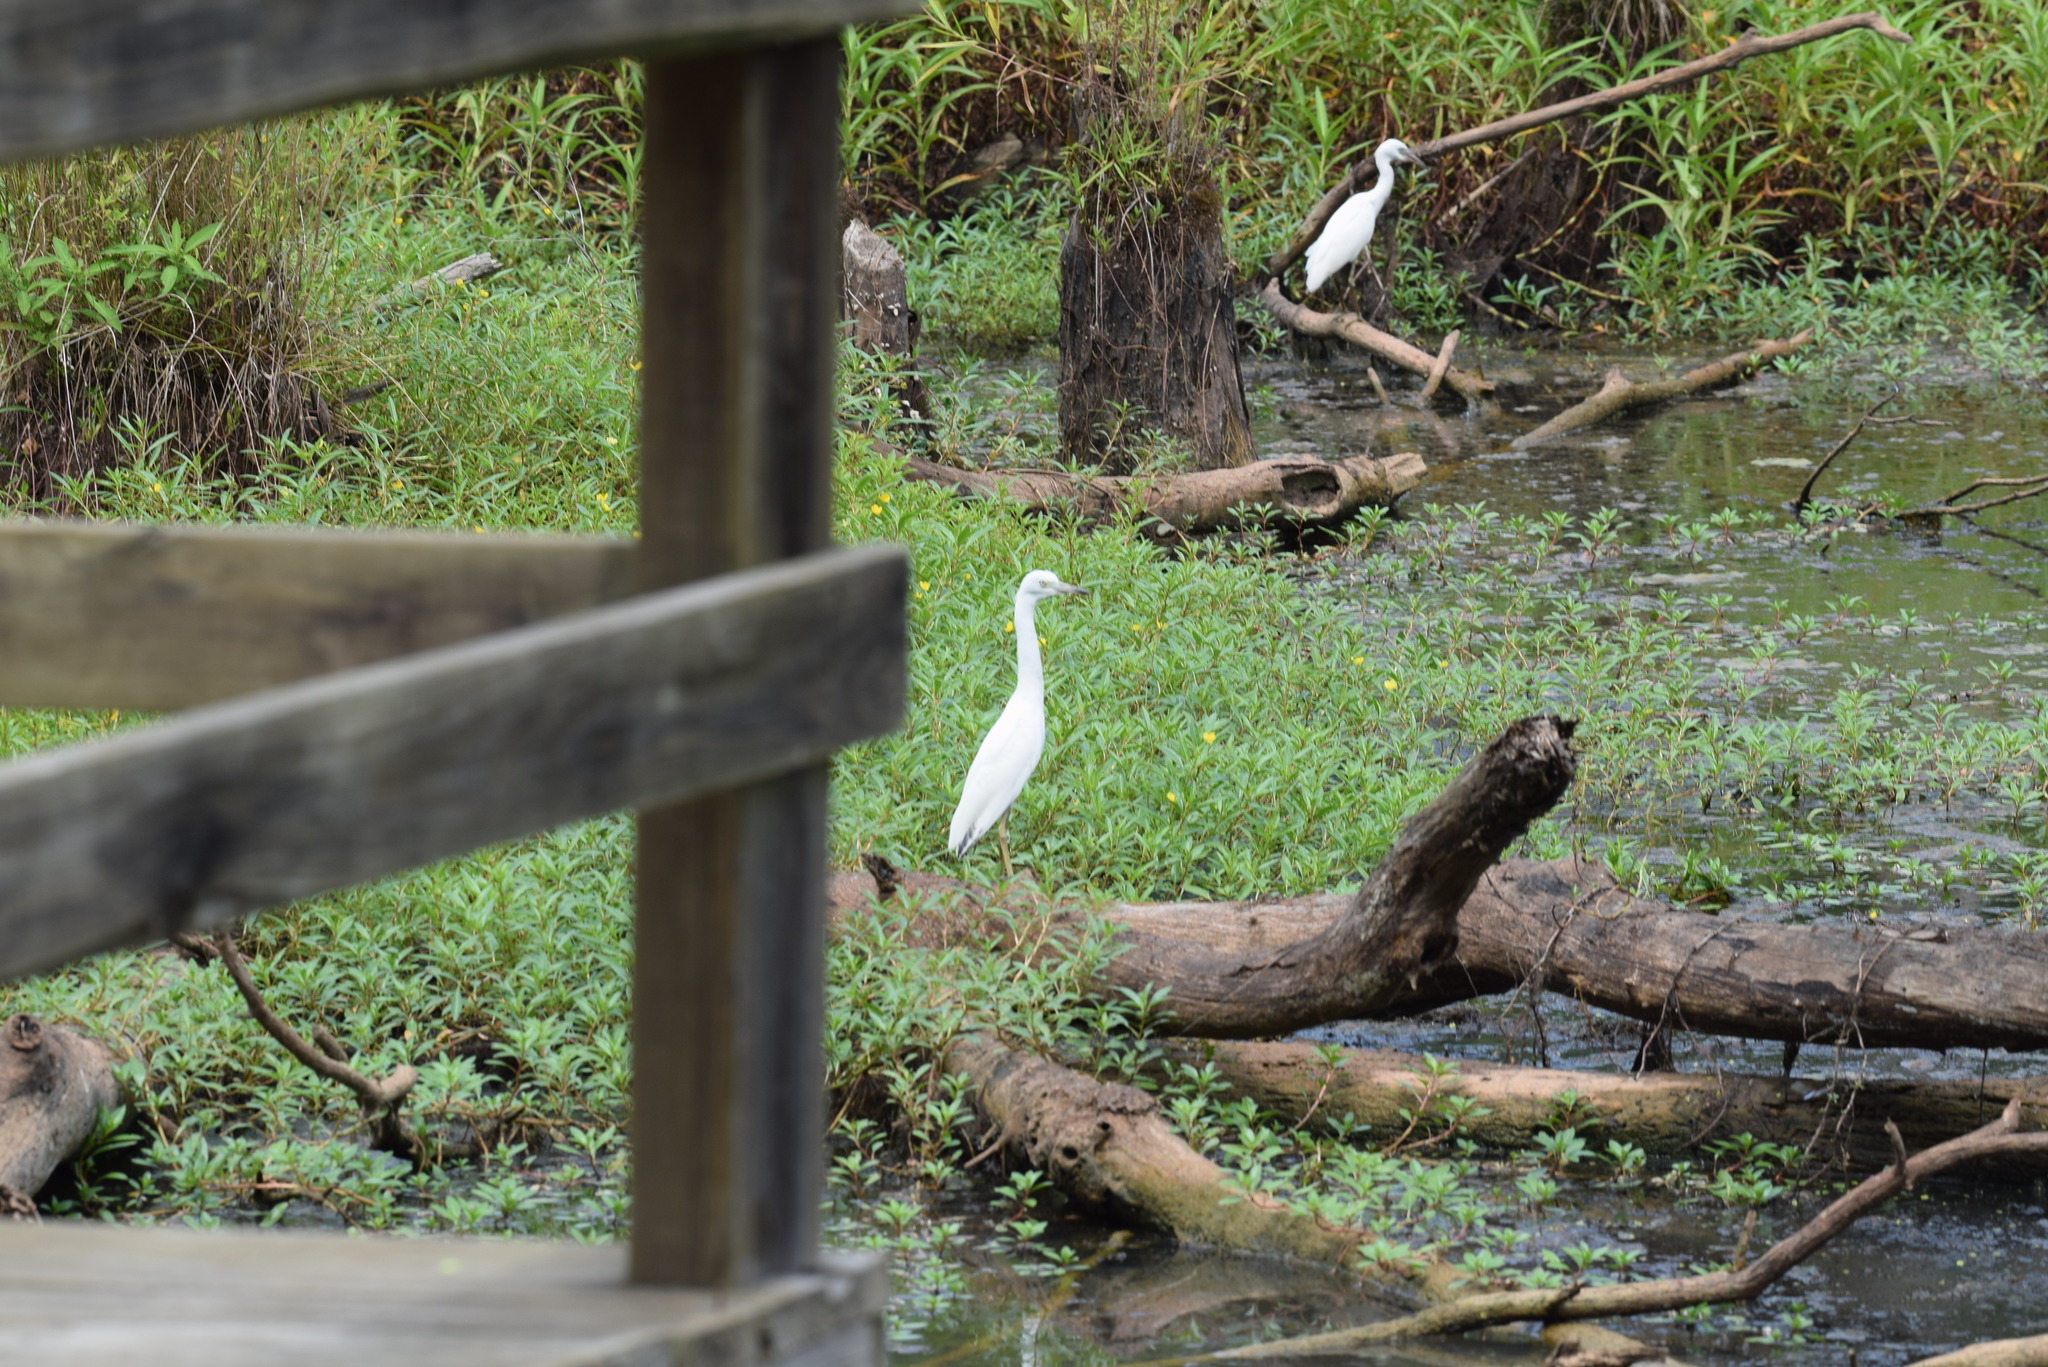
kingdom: Animalia
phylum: Chordata
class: Aves
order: Pelecaniformes
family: Ardeidae
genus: Egretta
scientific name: Egretta caerulea
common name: Little blue heron
